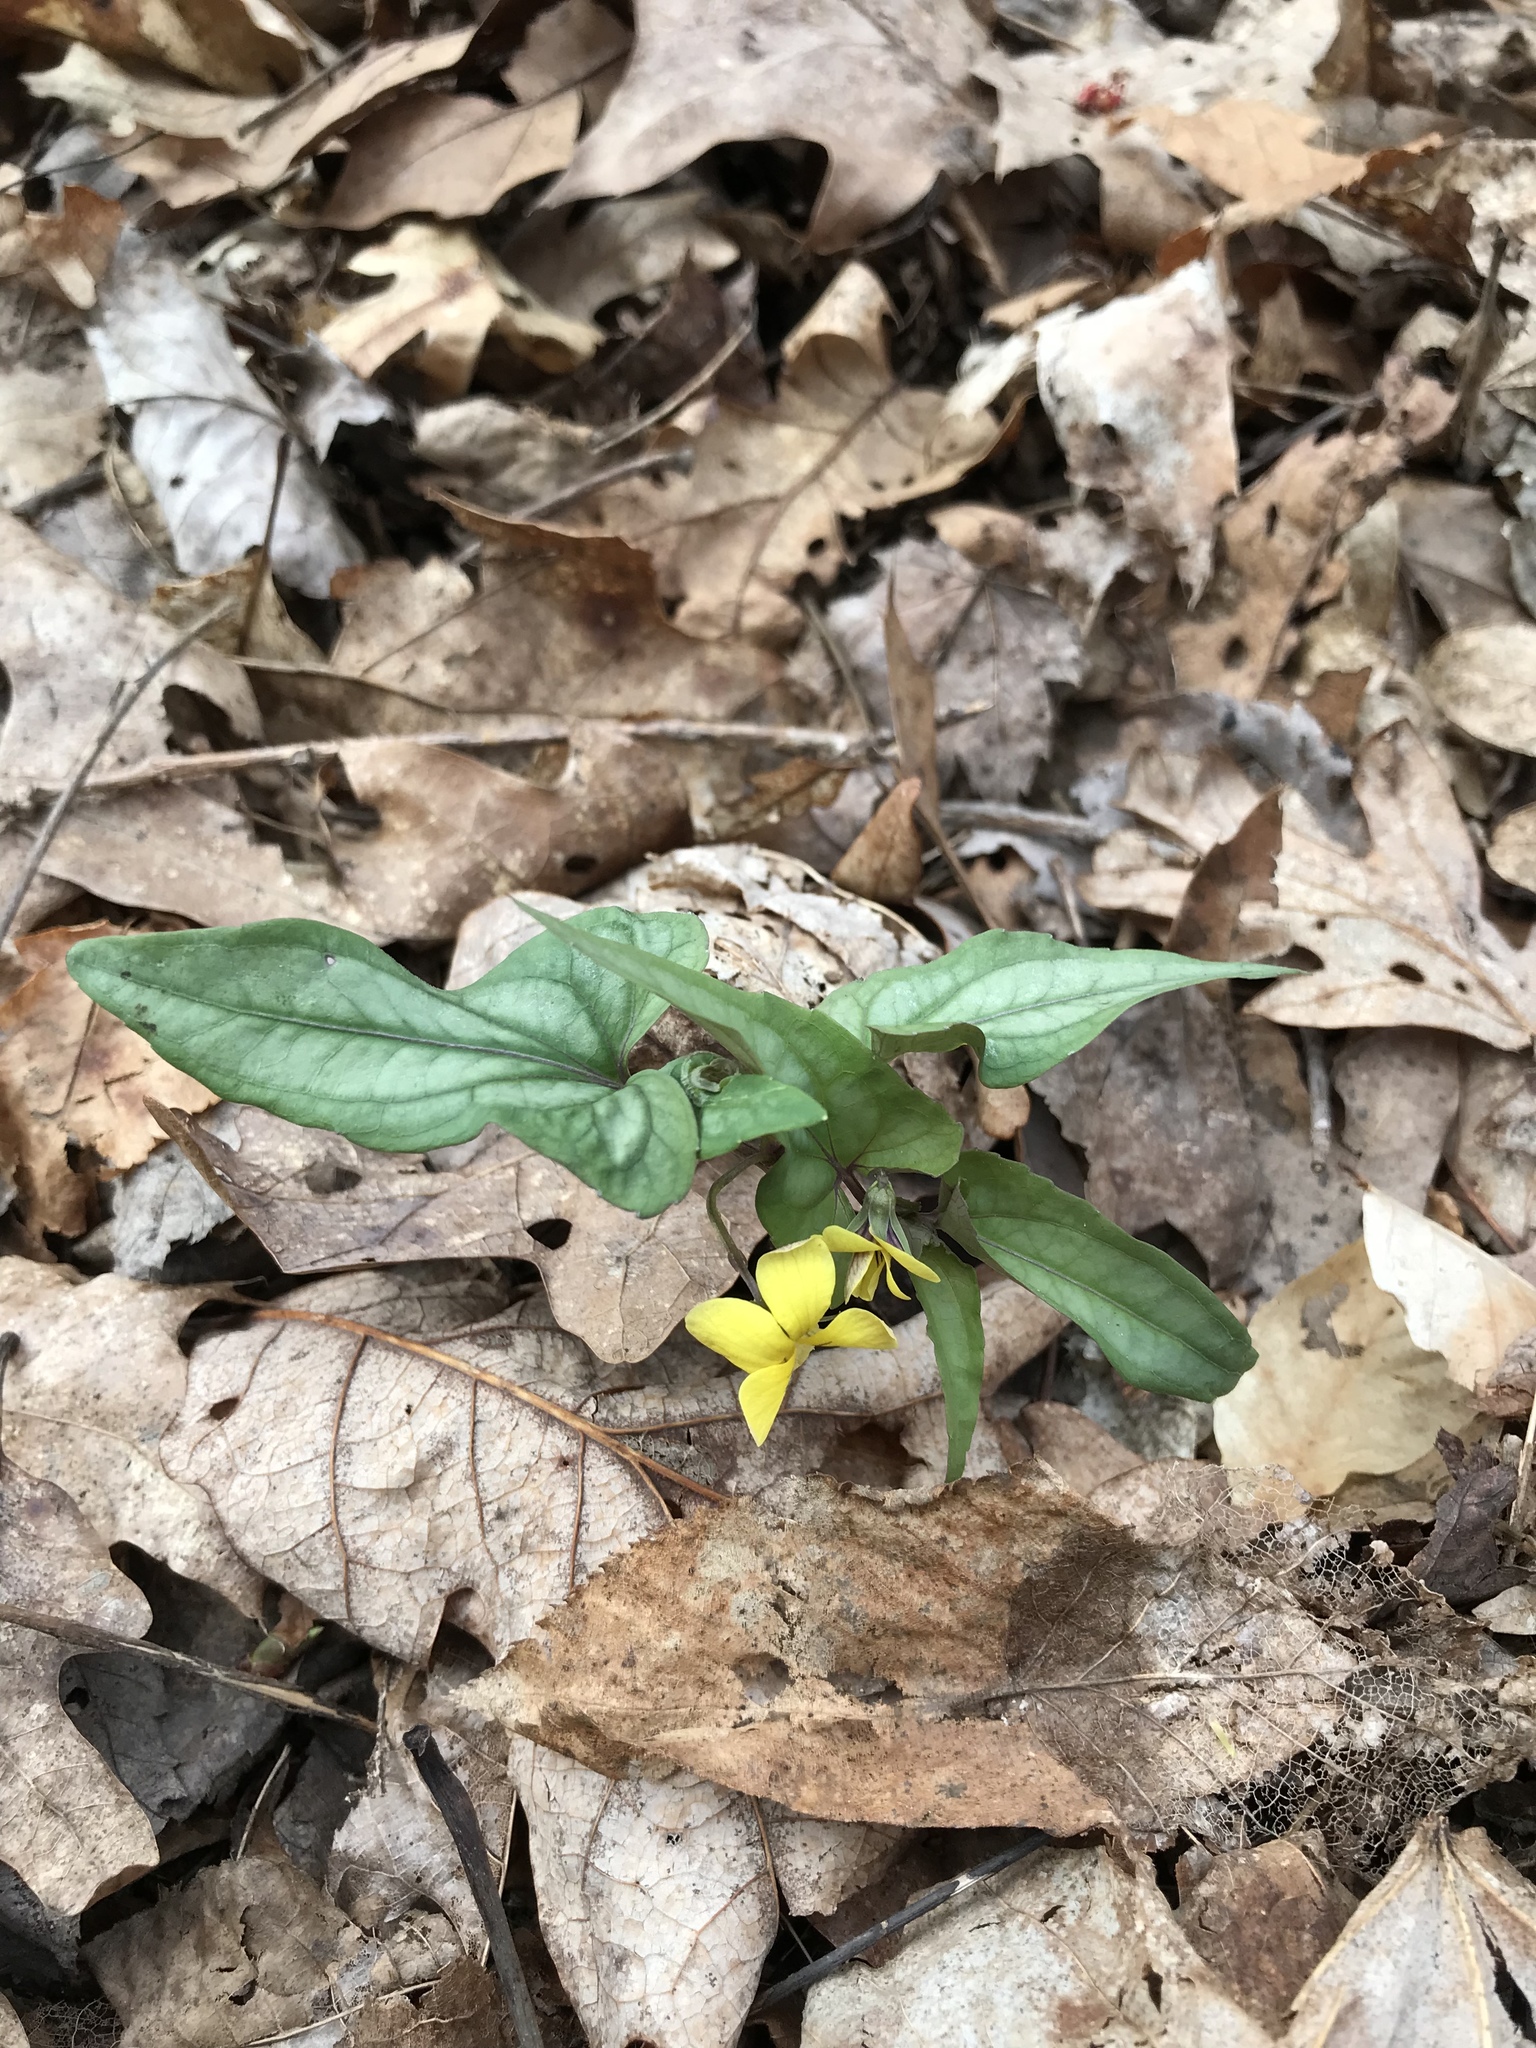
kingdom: Plantae
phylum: Tracheophyta
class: Magnoliopsida
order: Malpighiales
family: Violaceae
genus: Viola
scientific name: Viola hastata
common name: Spear-leaf violet
